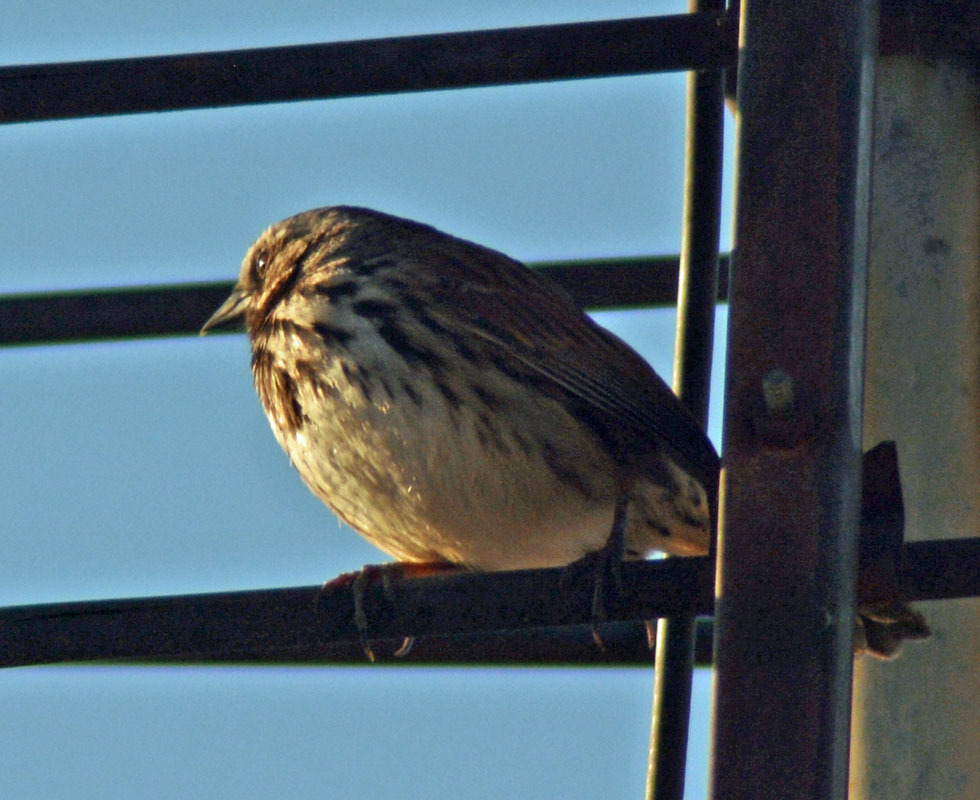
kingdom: Animalia
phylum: Chordata
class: Aves
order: Passeriformes
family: Passerellidae
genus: Melospiza
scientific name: Melospiza melodia
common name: Song sparrow
